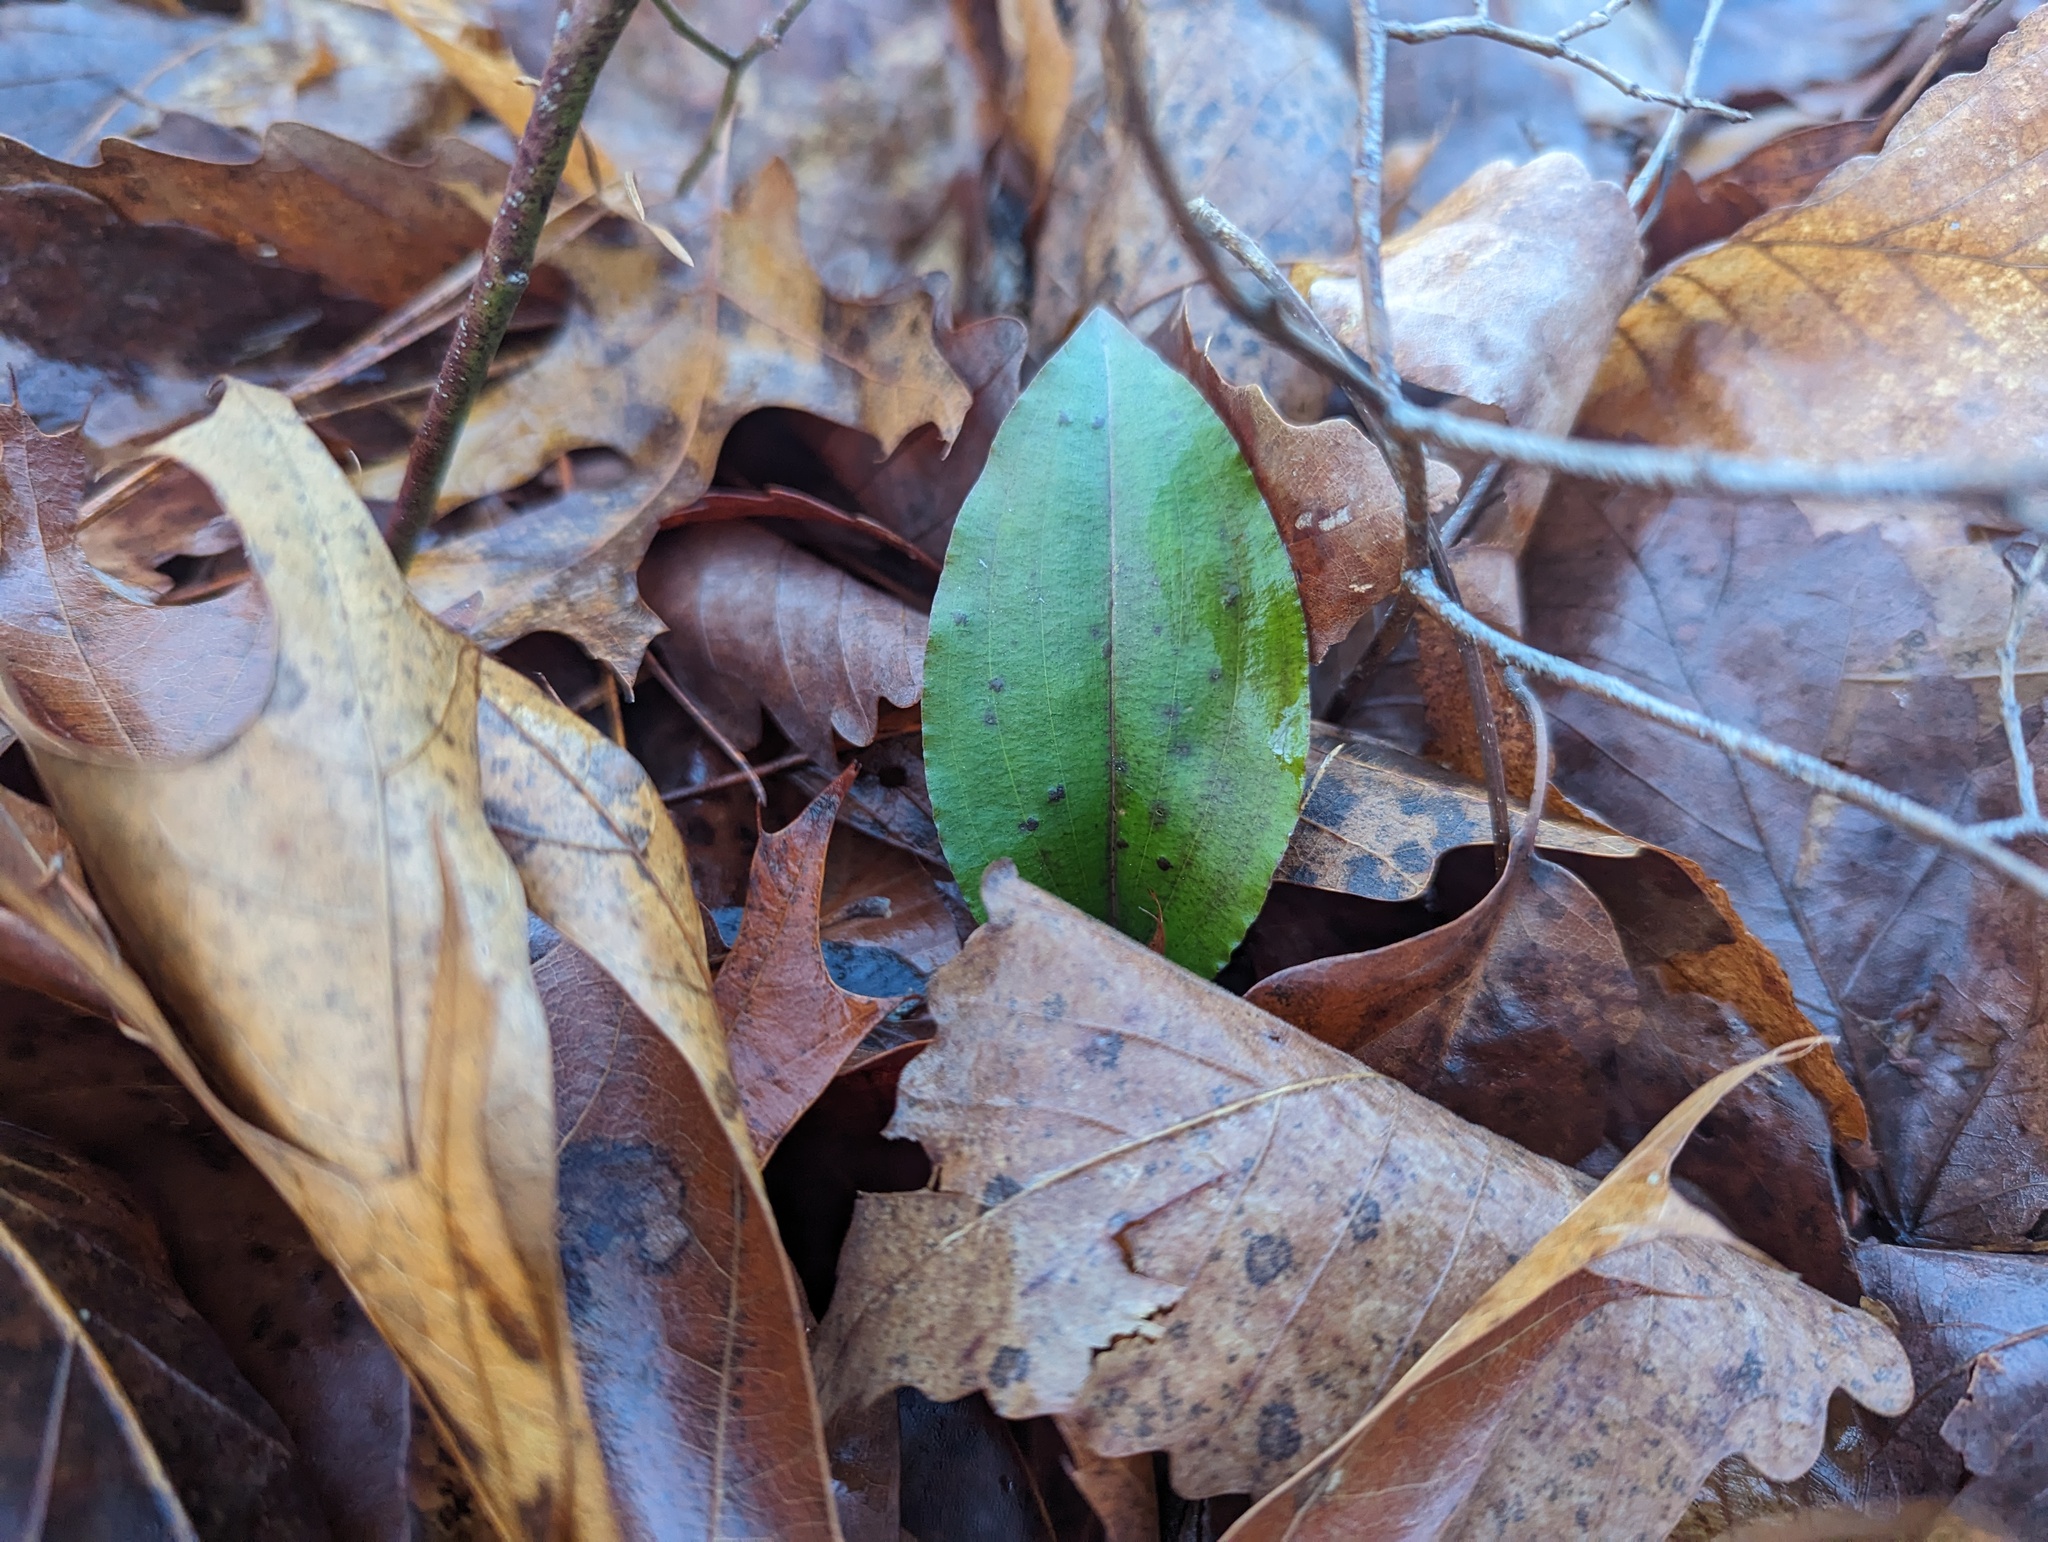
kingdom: Plantae
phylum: Tracheophyta
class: Liliopsida
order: Asparagales
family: Orchidaceae
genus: Tipularia
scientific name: Tipularia discolor
